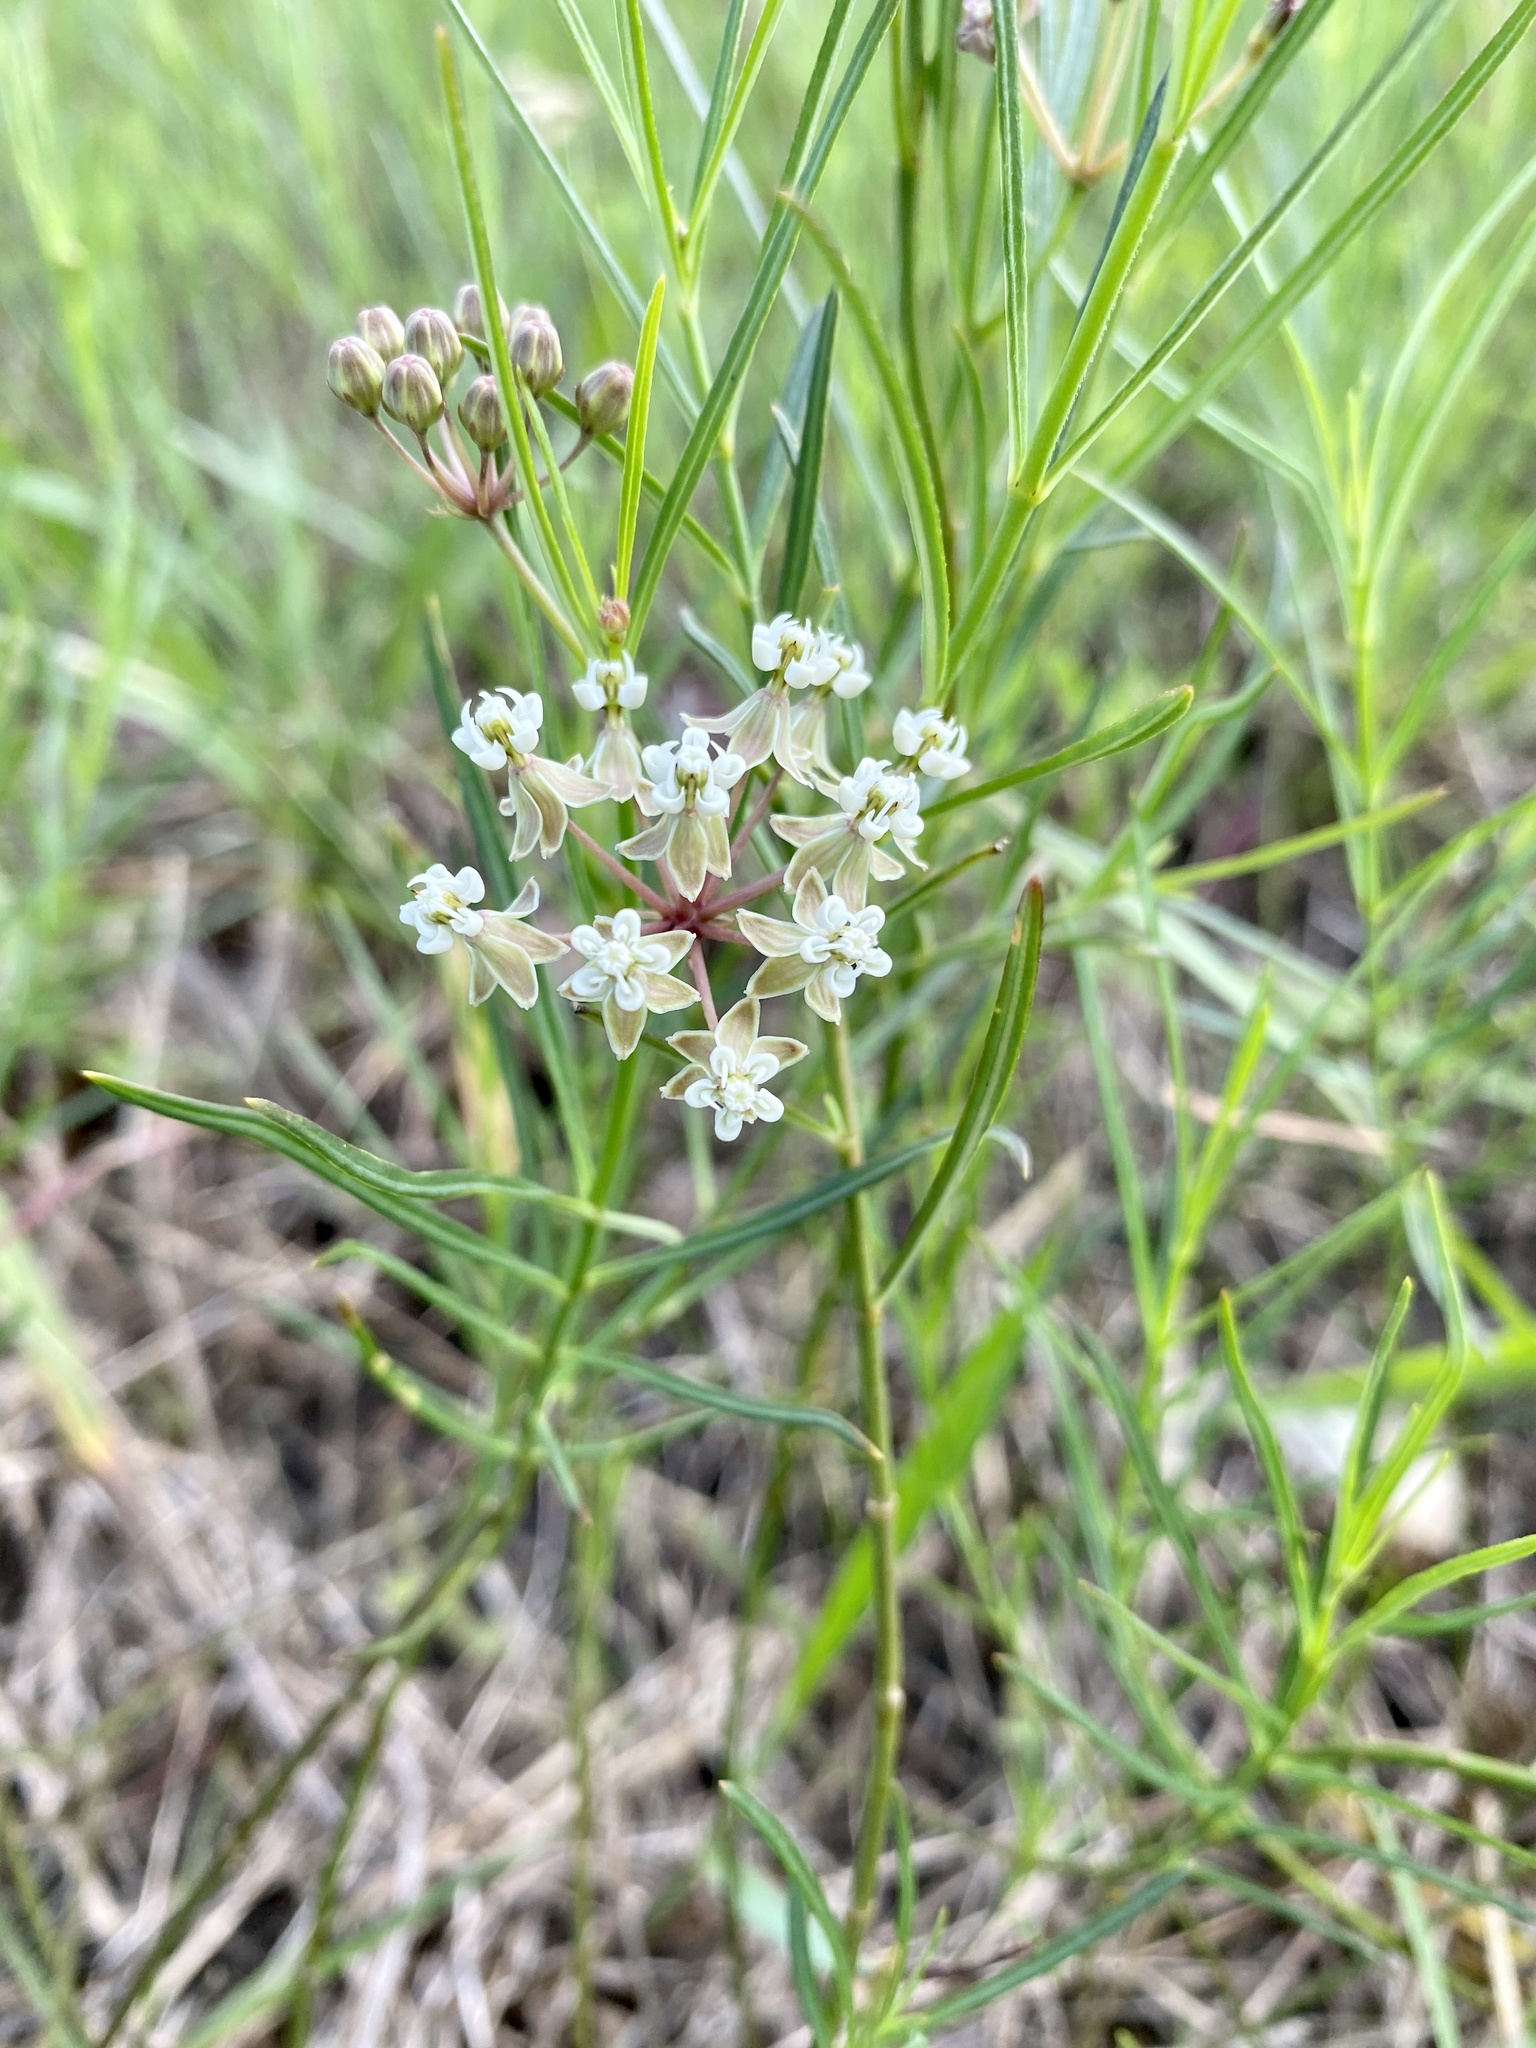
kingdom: Plantae
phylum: Tracheophyta
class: Magnoliopsida
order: Gentianales
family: Apocynaceae
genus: Asclepias
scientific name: Asclepias linearis
